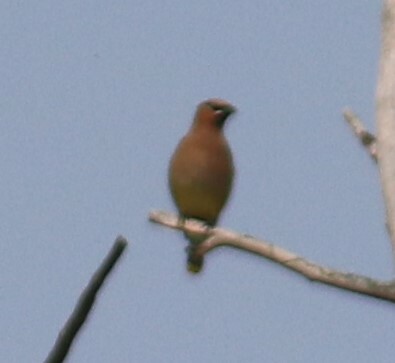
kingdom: Animalia
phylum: Chordata
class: Aves
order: Passeriformes
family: Bombycillidae
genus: Bombycilla
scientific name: Bombycilla cedrorum
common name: Cedar waxwing
